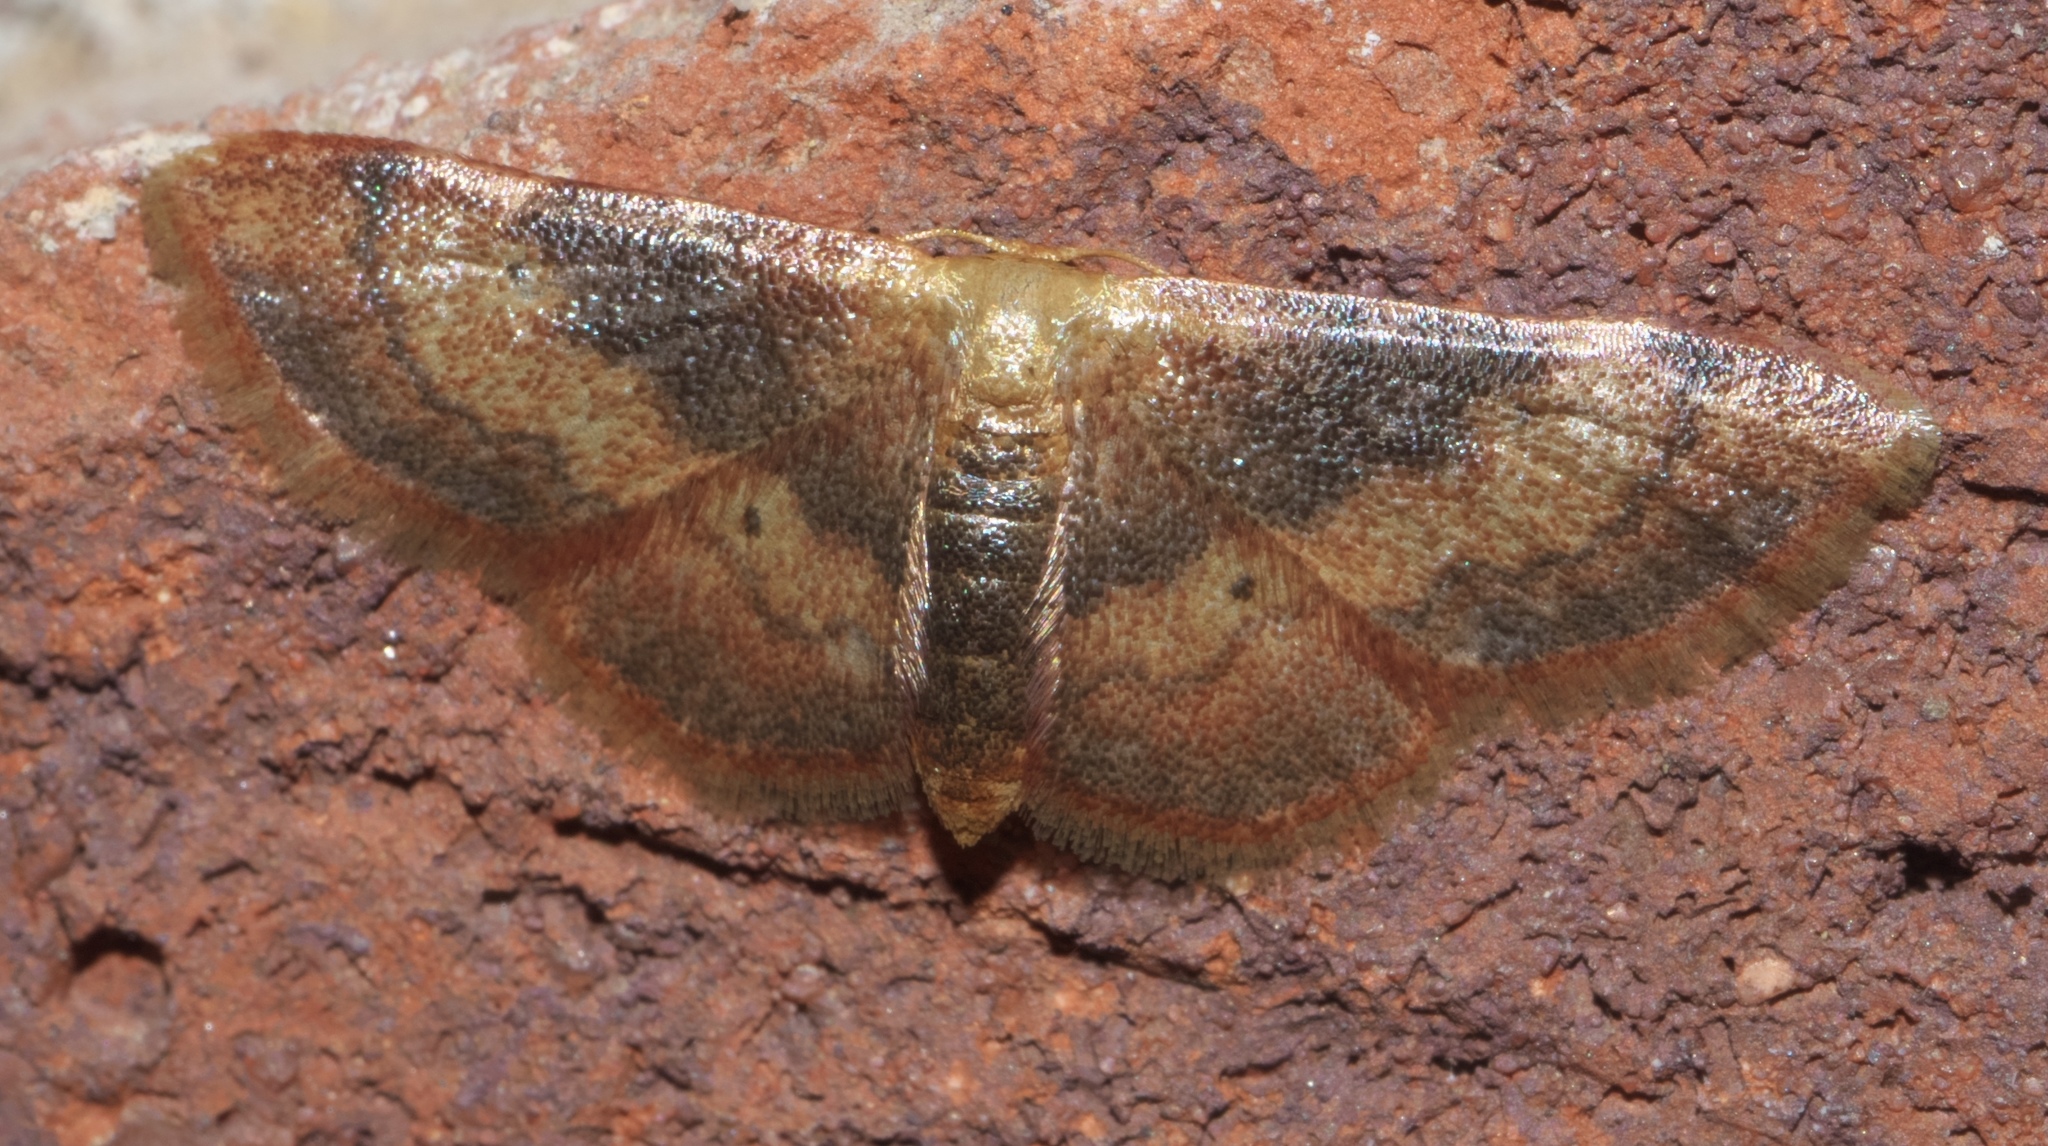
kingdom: Animalia
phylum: Arthropoda
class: Insecta
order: Lepidoptera
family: Geometridae
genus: Idaea
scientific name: Idaea demissaria
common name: Red-bordered wave
